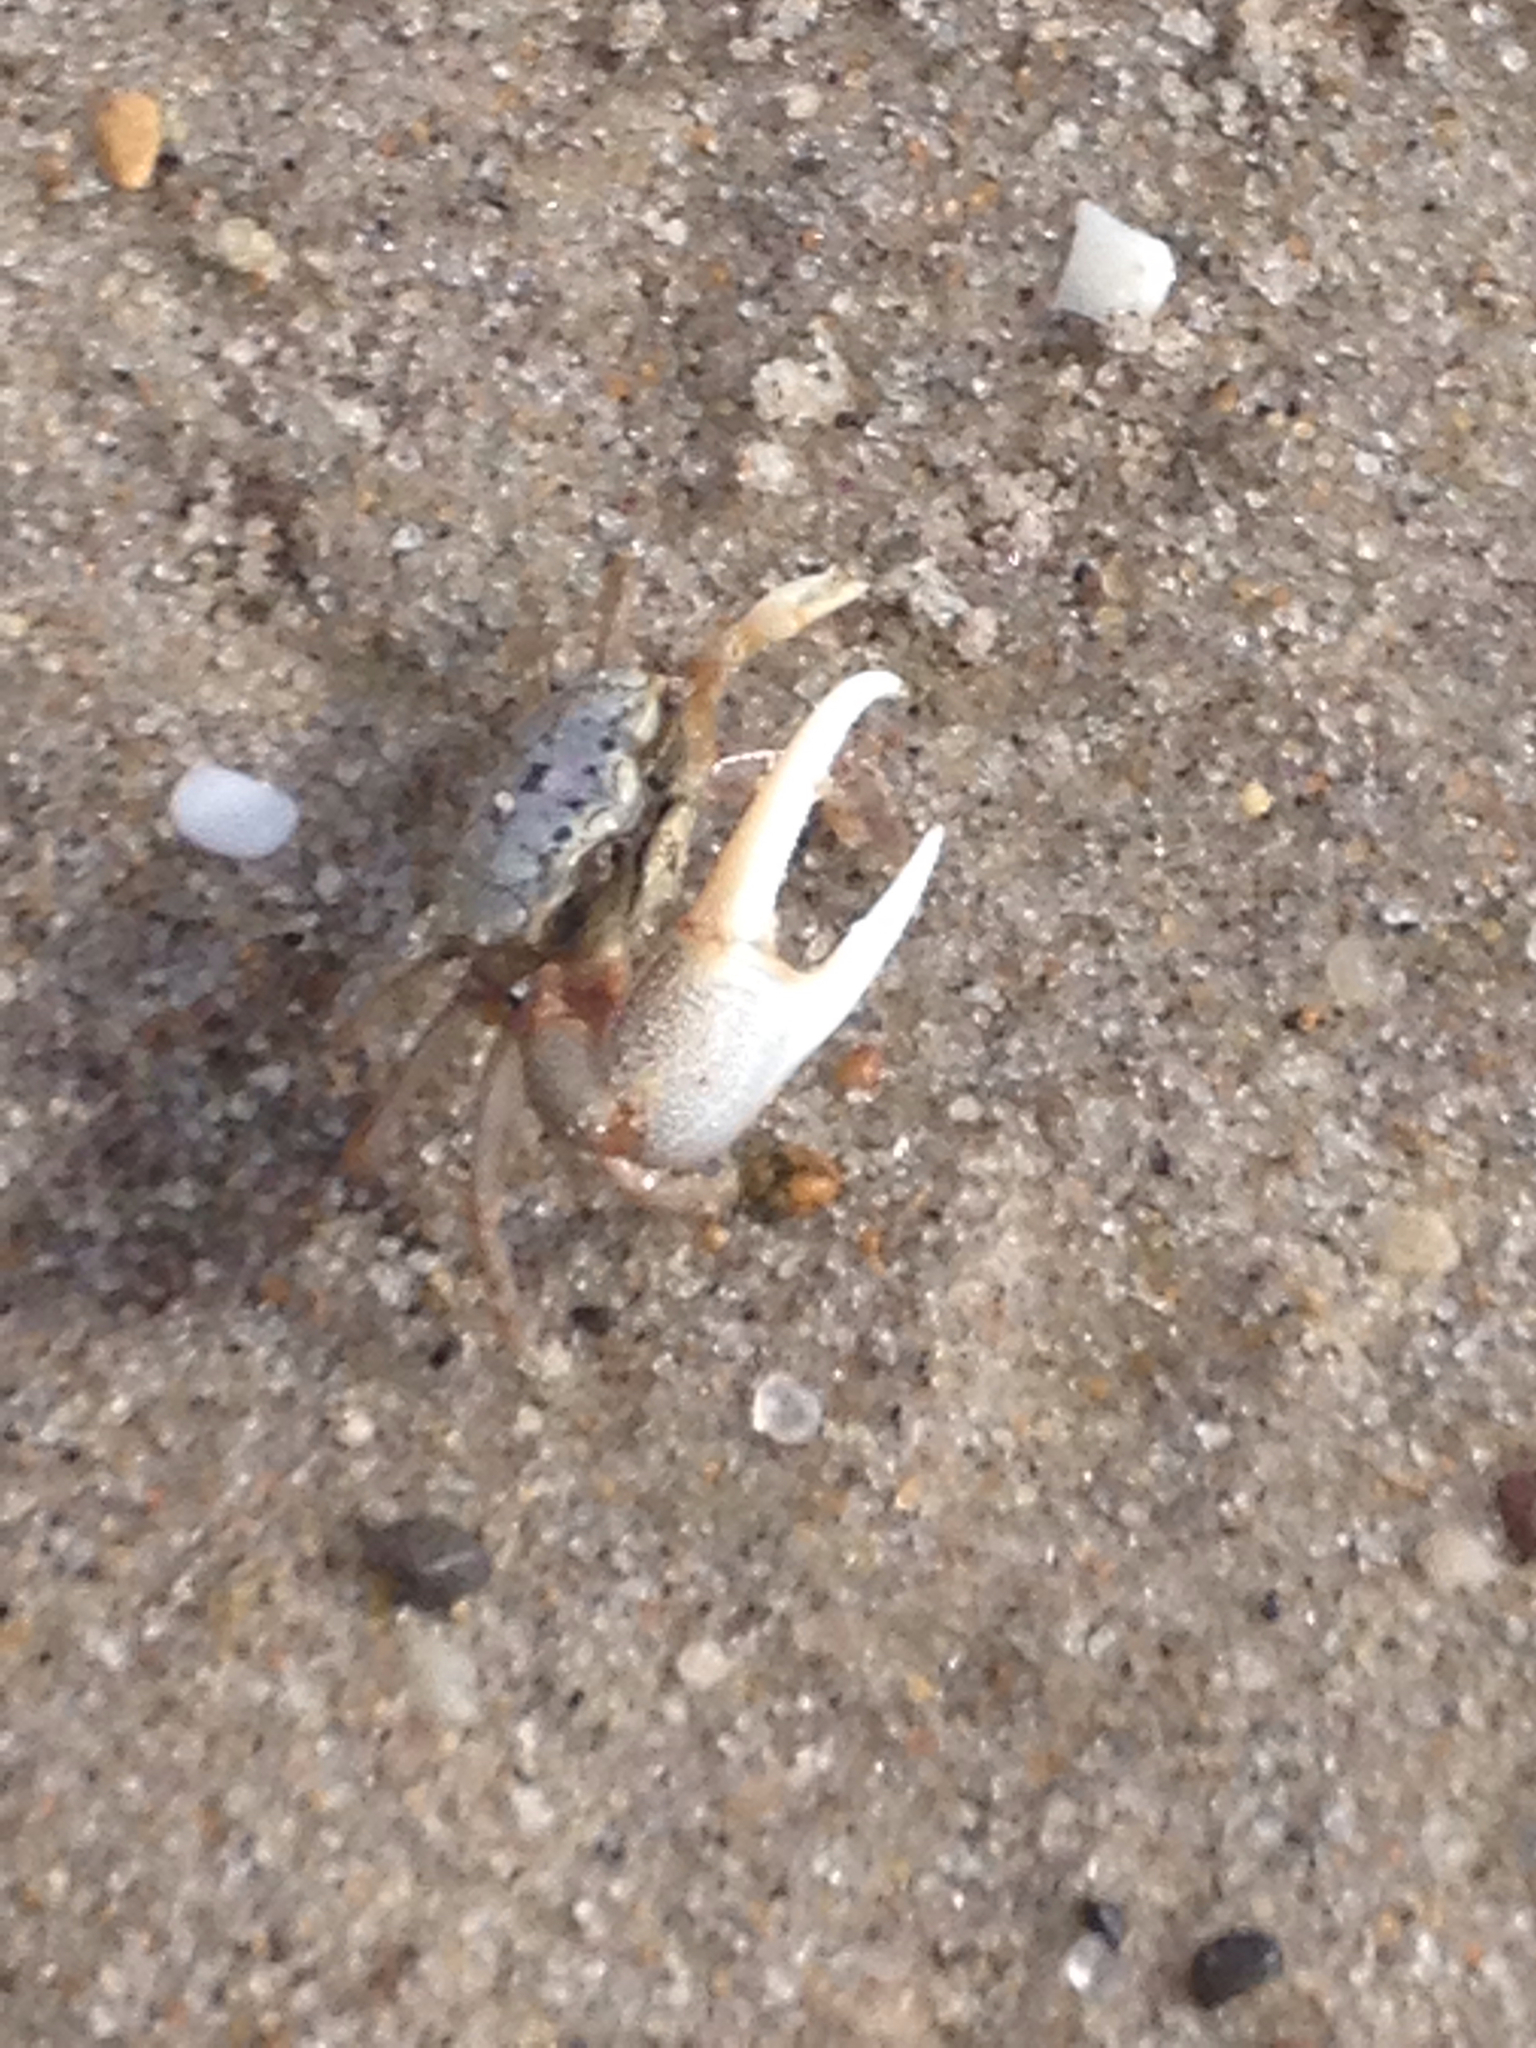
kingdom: Animalia
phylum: Arthropoda
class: Malacostraca
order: Decapoda
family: Ocypodidae
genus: Leptuca
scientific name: Leptuca pugilator
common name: Atlantic sand fiddler crab
